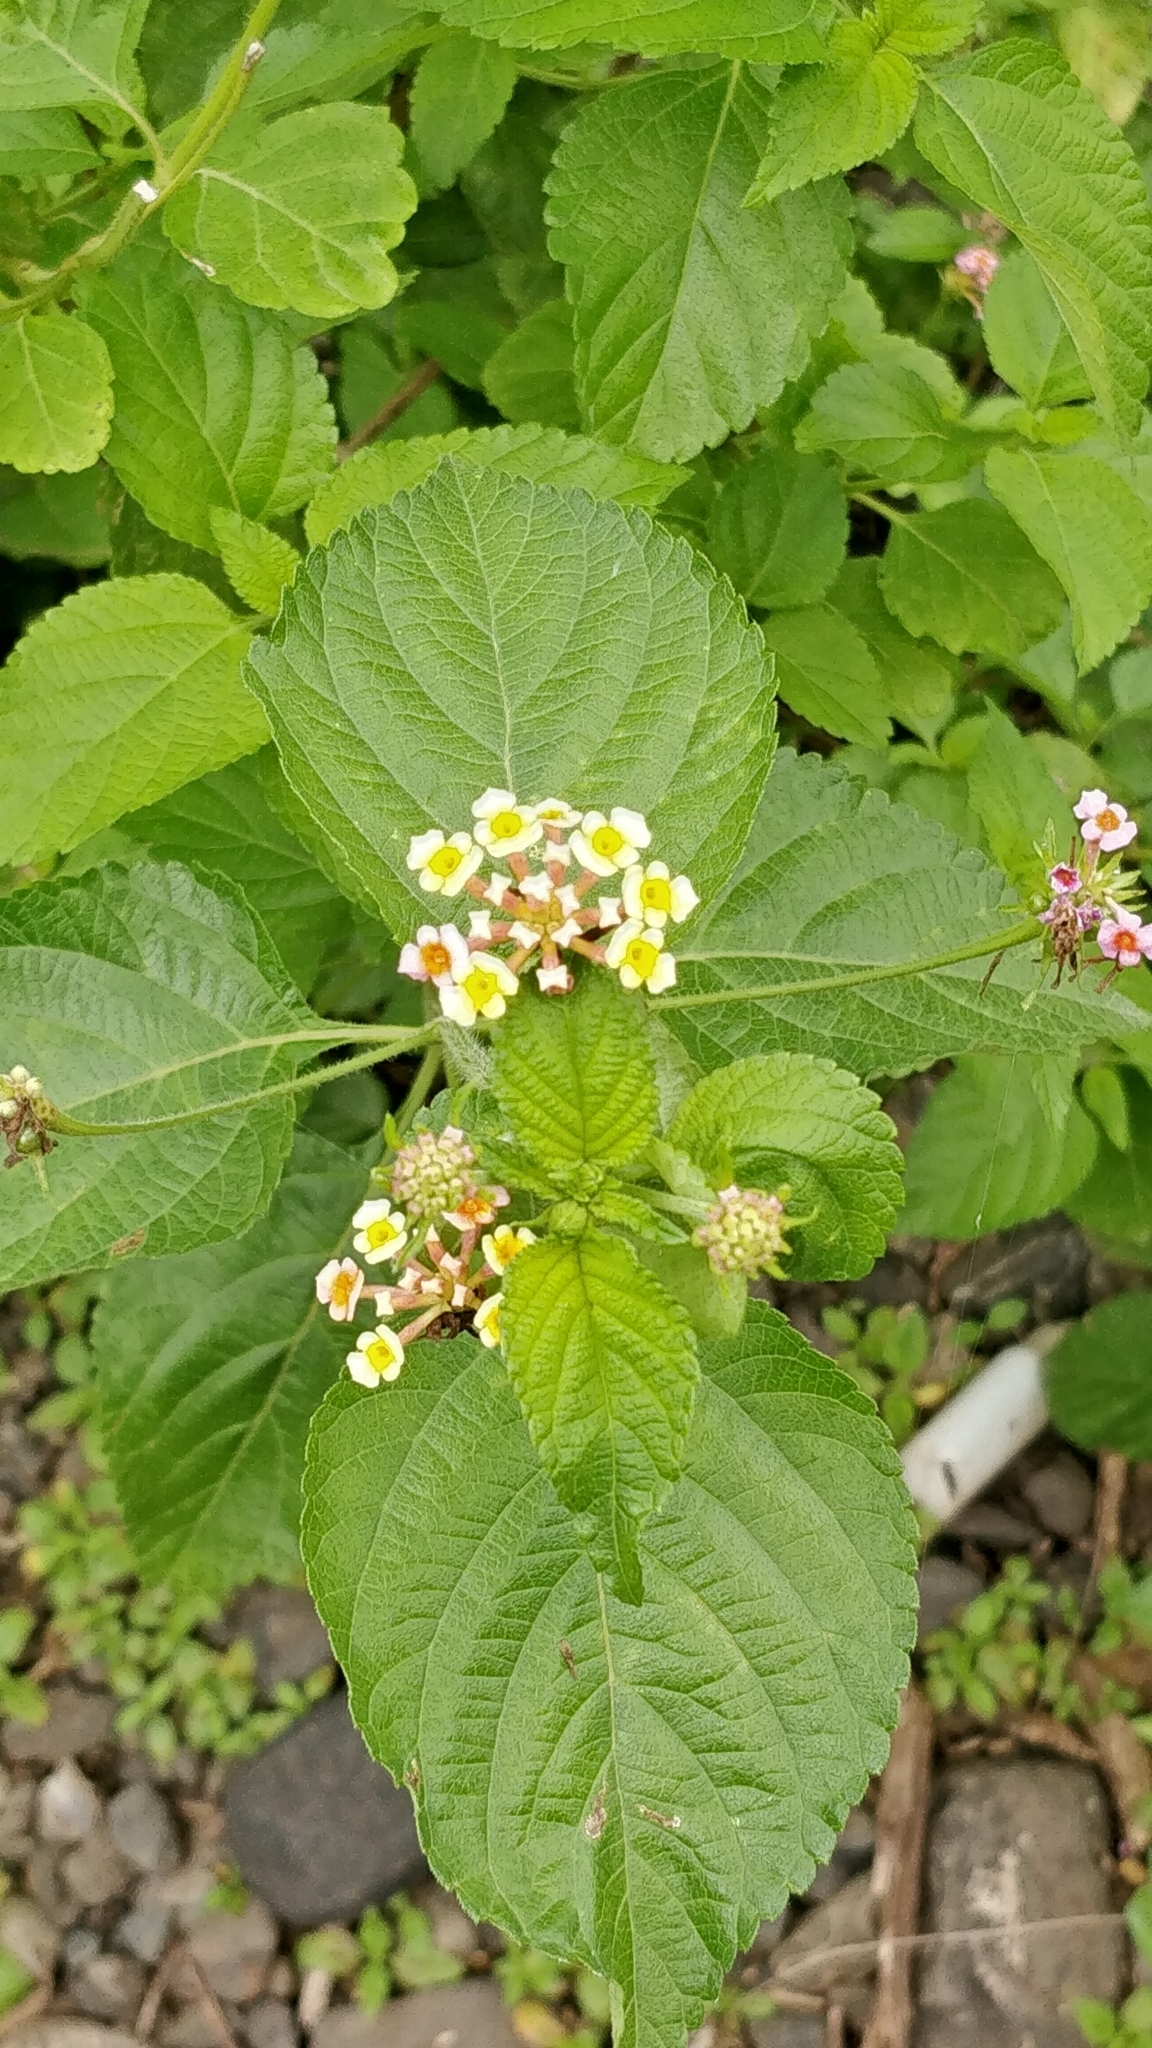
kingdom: Plantae
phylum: Tracheophyta
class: Magnoliopsida
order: Lamiales
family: Verbenaceae
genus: Lantana
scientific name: Lantana camara
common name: Lantana
